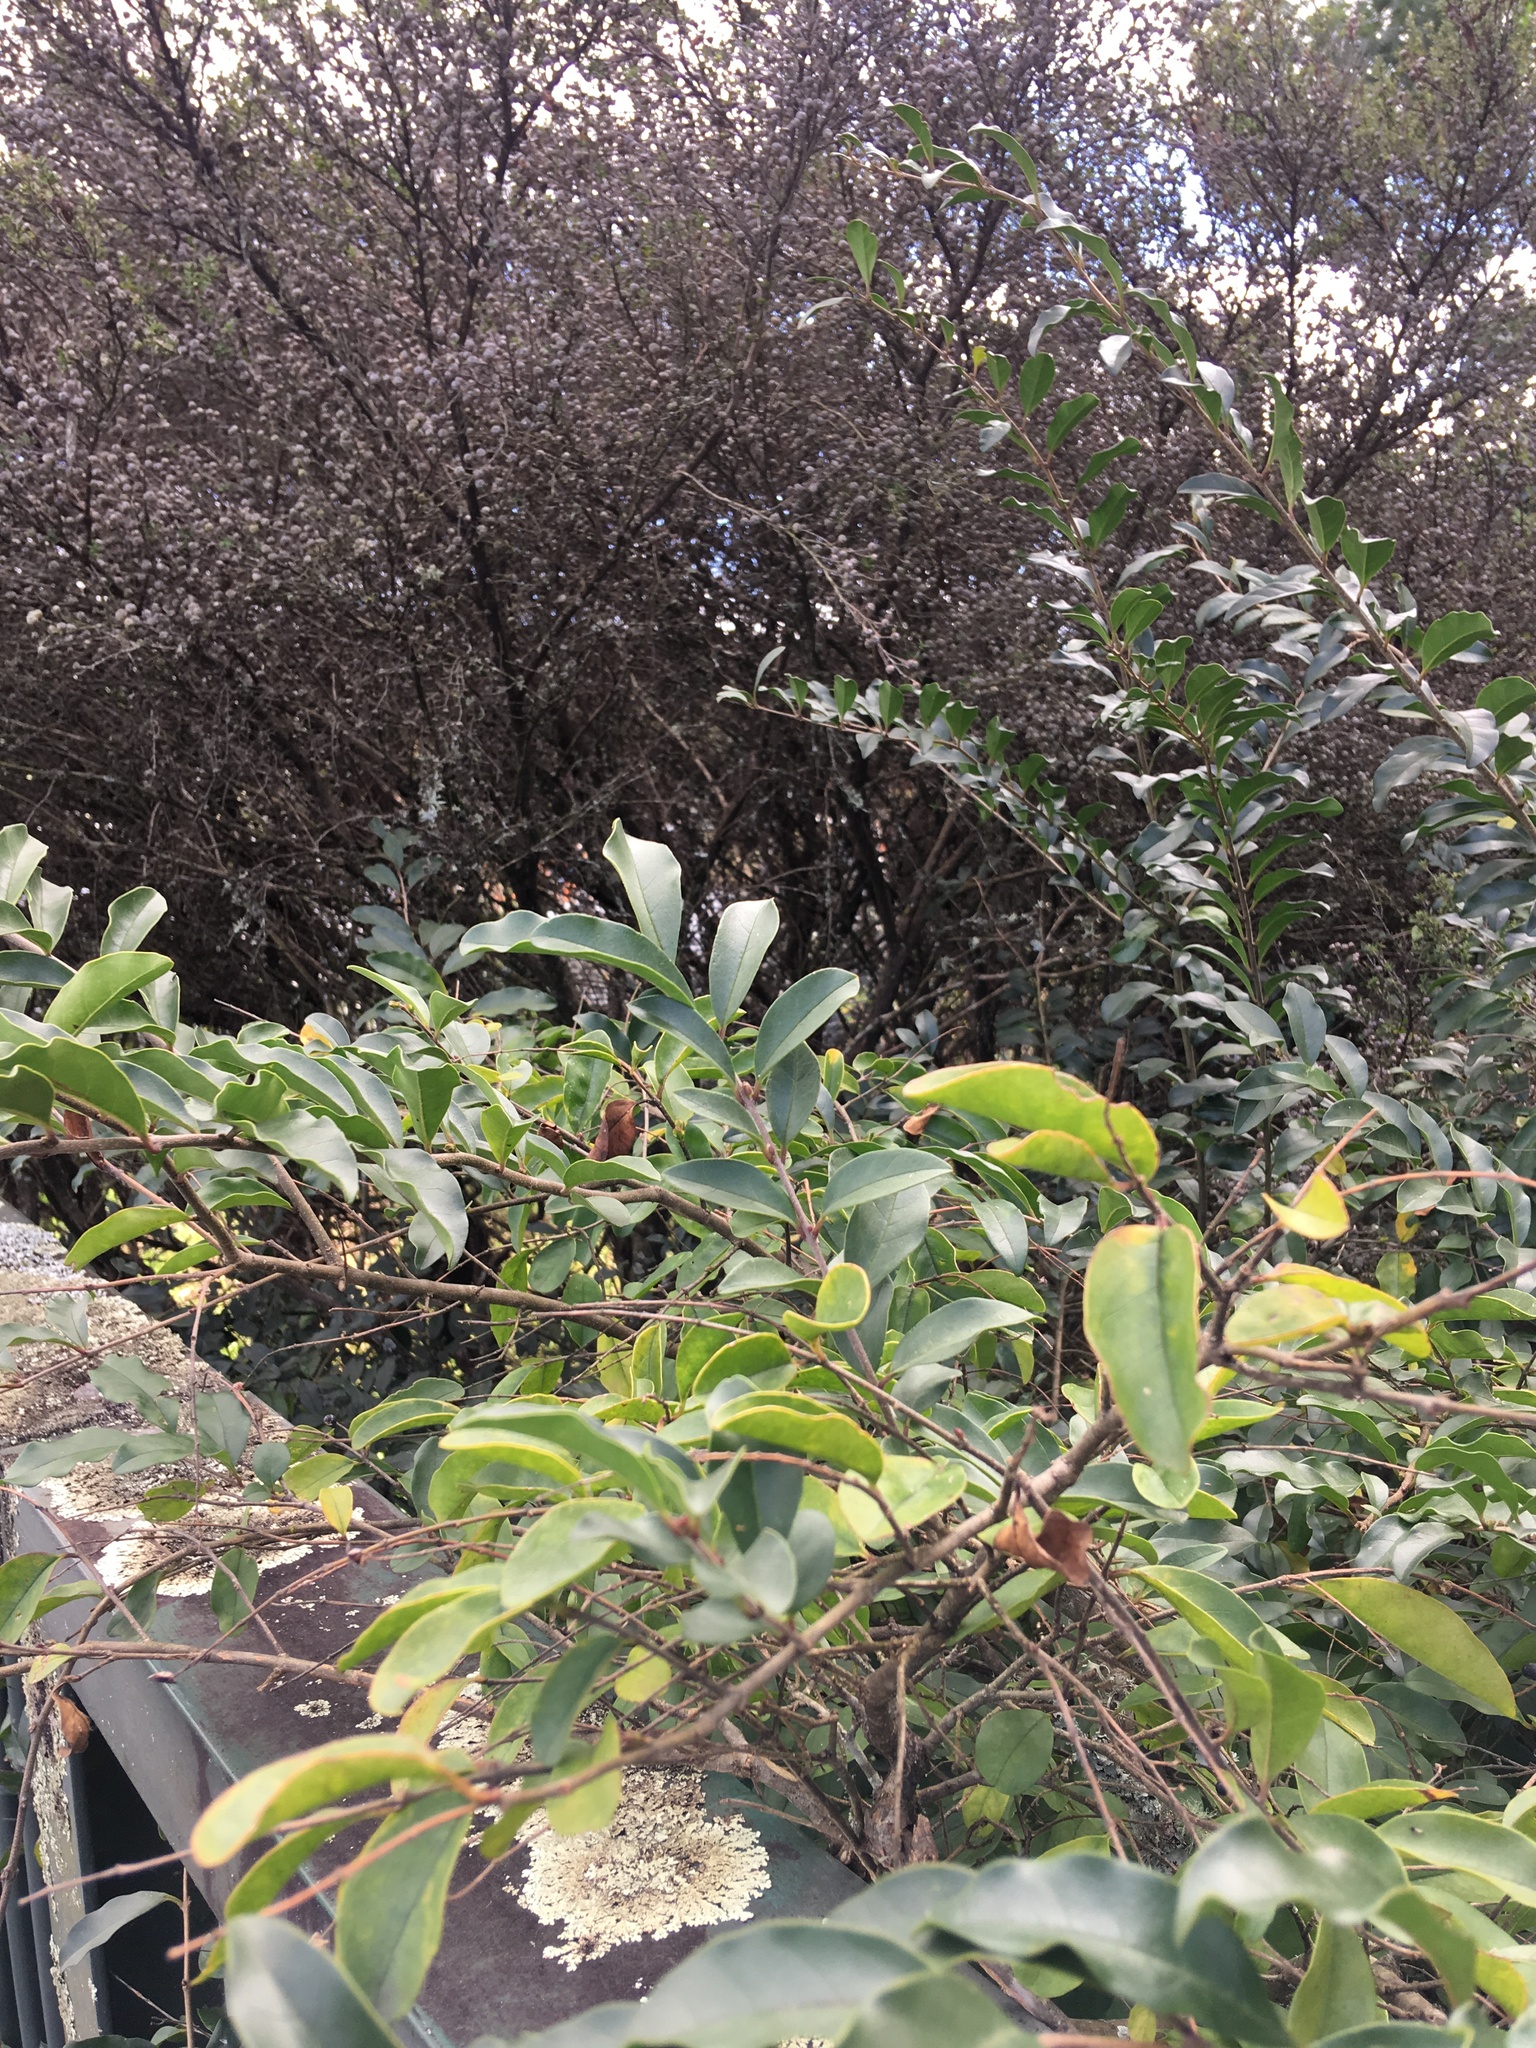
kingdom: Plantae
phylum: Tracheophyta
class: Magnoliopsida
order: Lamiales
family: Oleaceae
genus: Ligustrum
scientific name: Ligustrum lucidum
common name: Glossy privet
